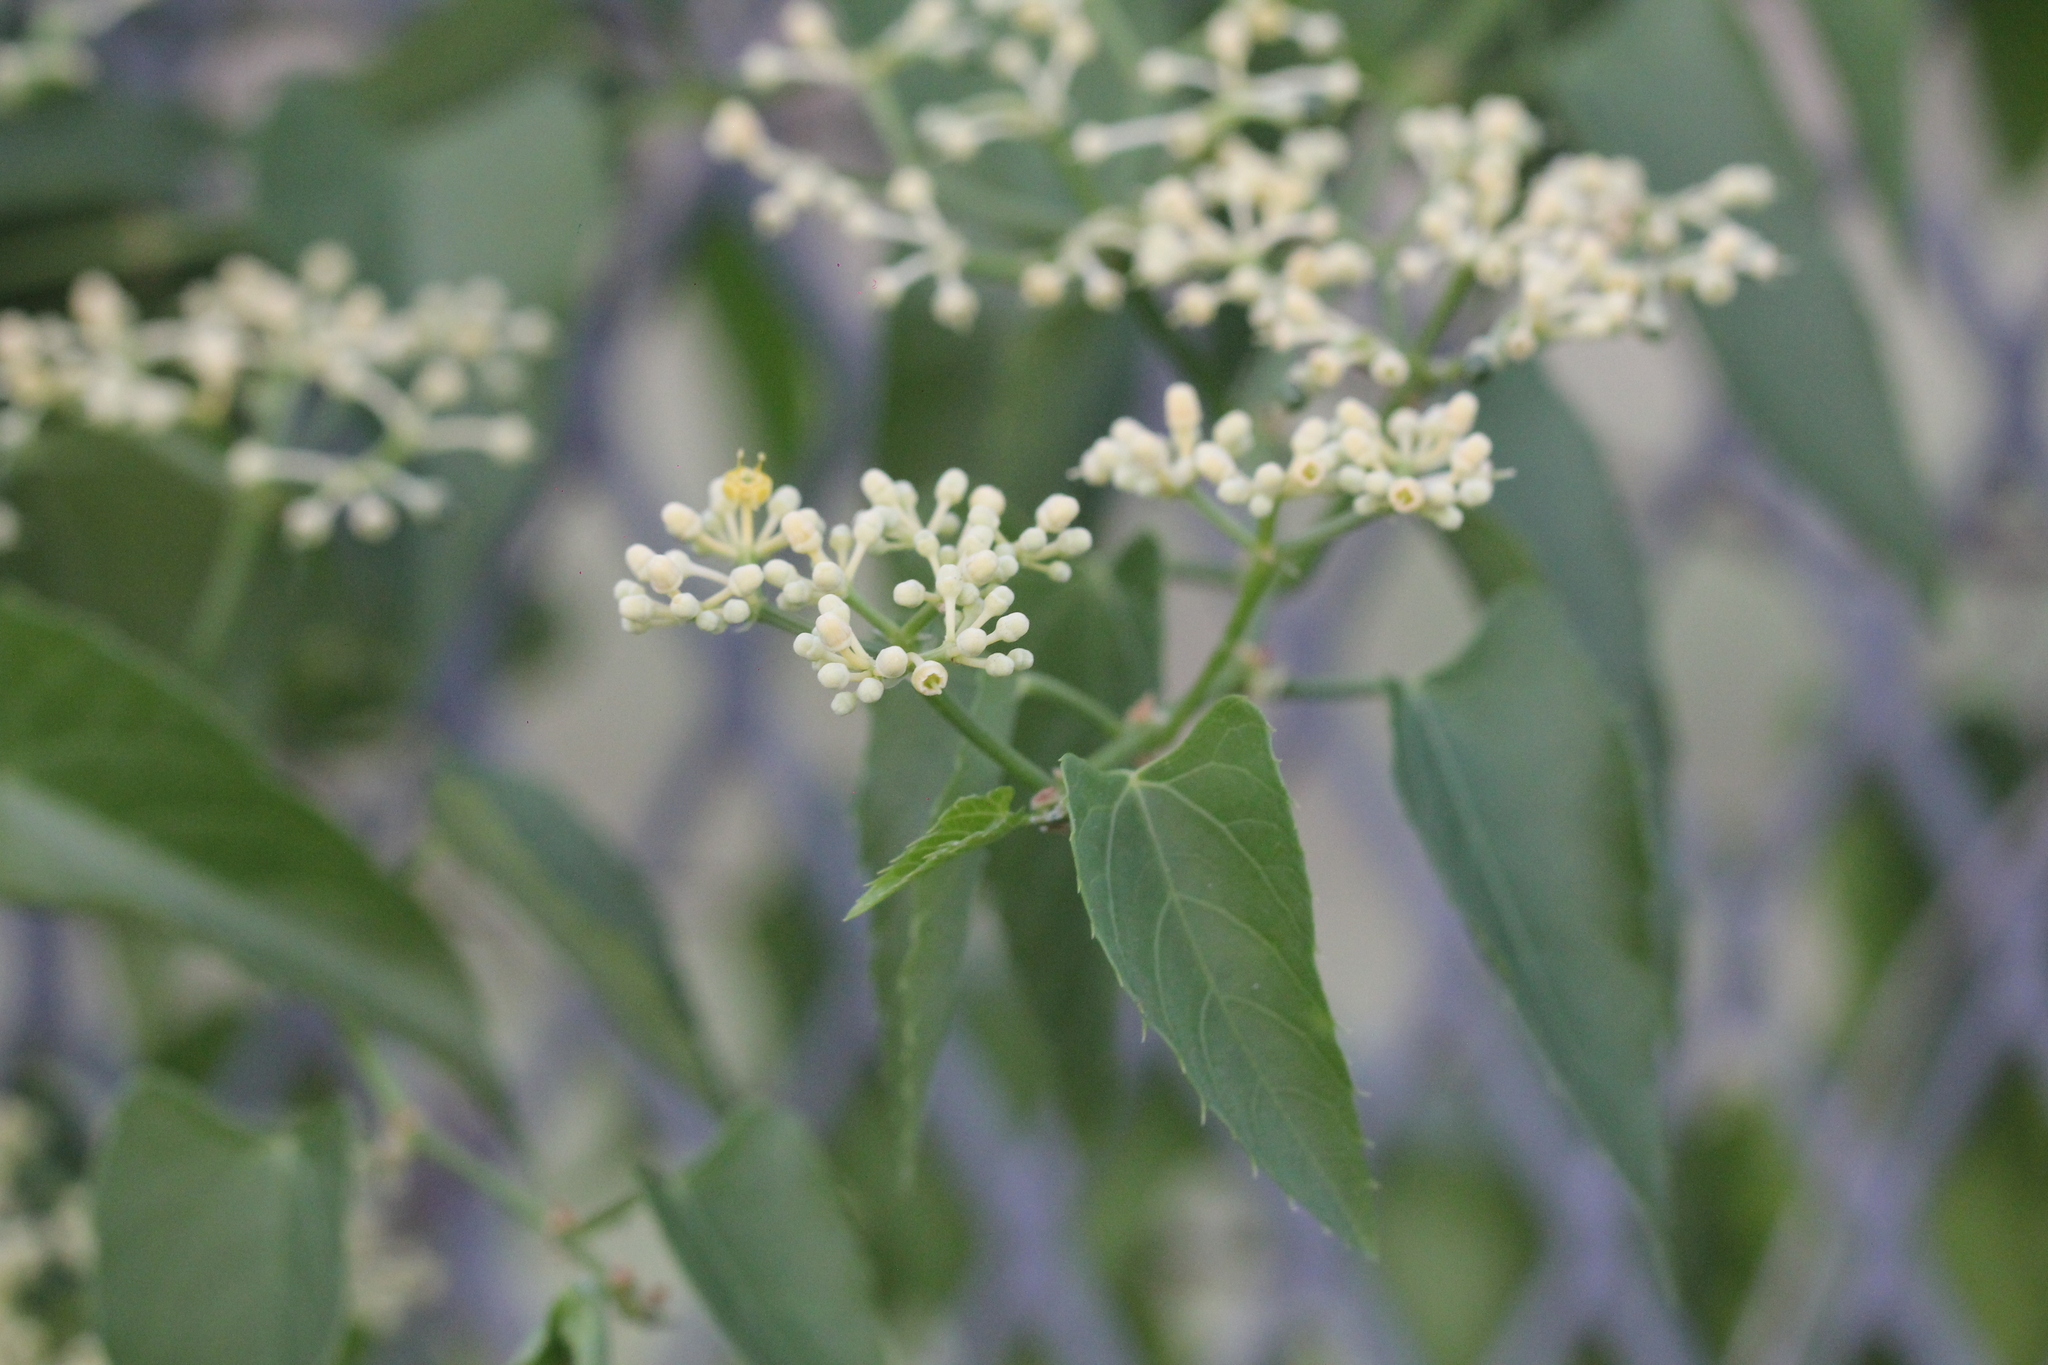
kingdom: Plantae
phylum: Tracheophyta
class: Magnoliopsida
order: Vitales
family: Vitaceae
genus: Cissus
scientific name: Cissus verticillata
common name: Princess vine
